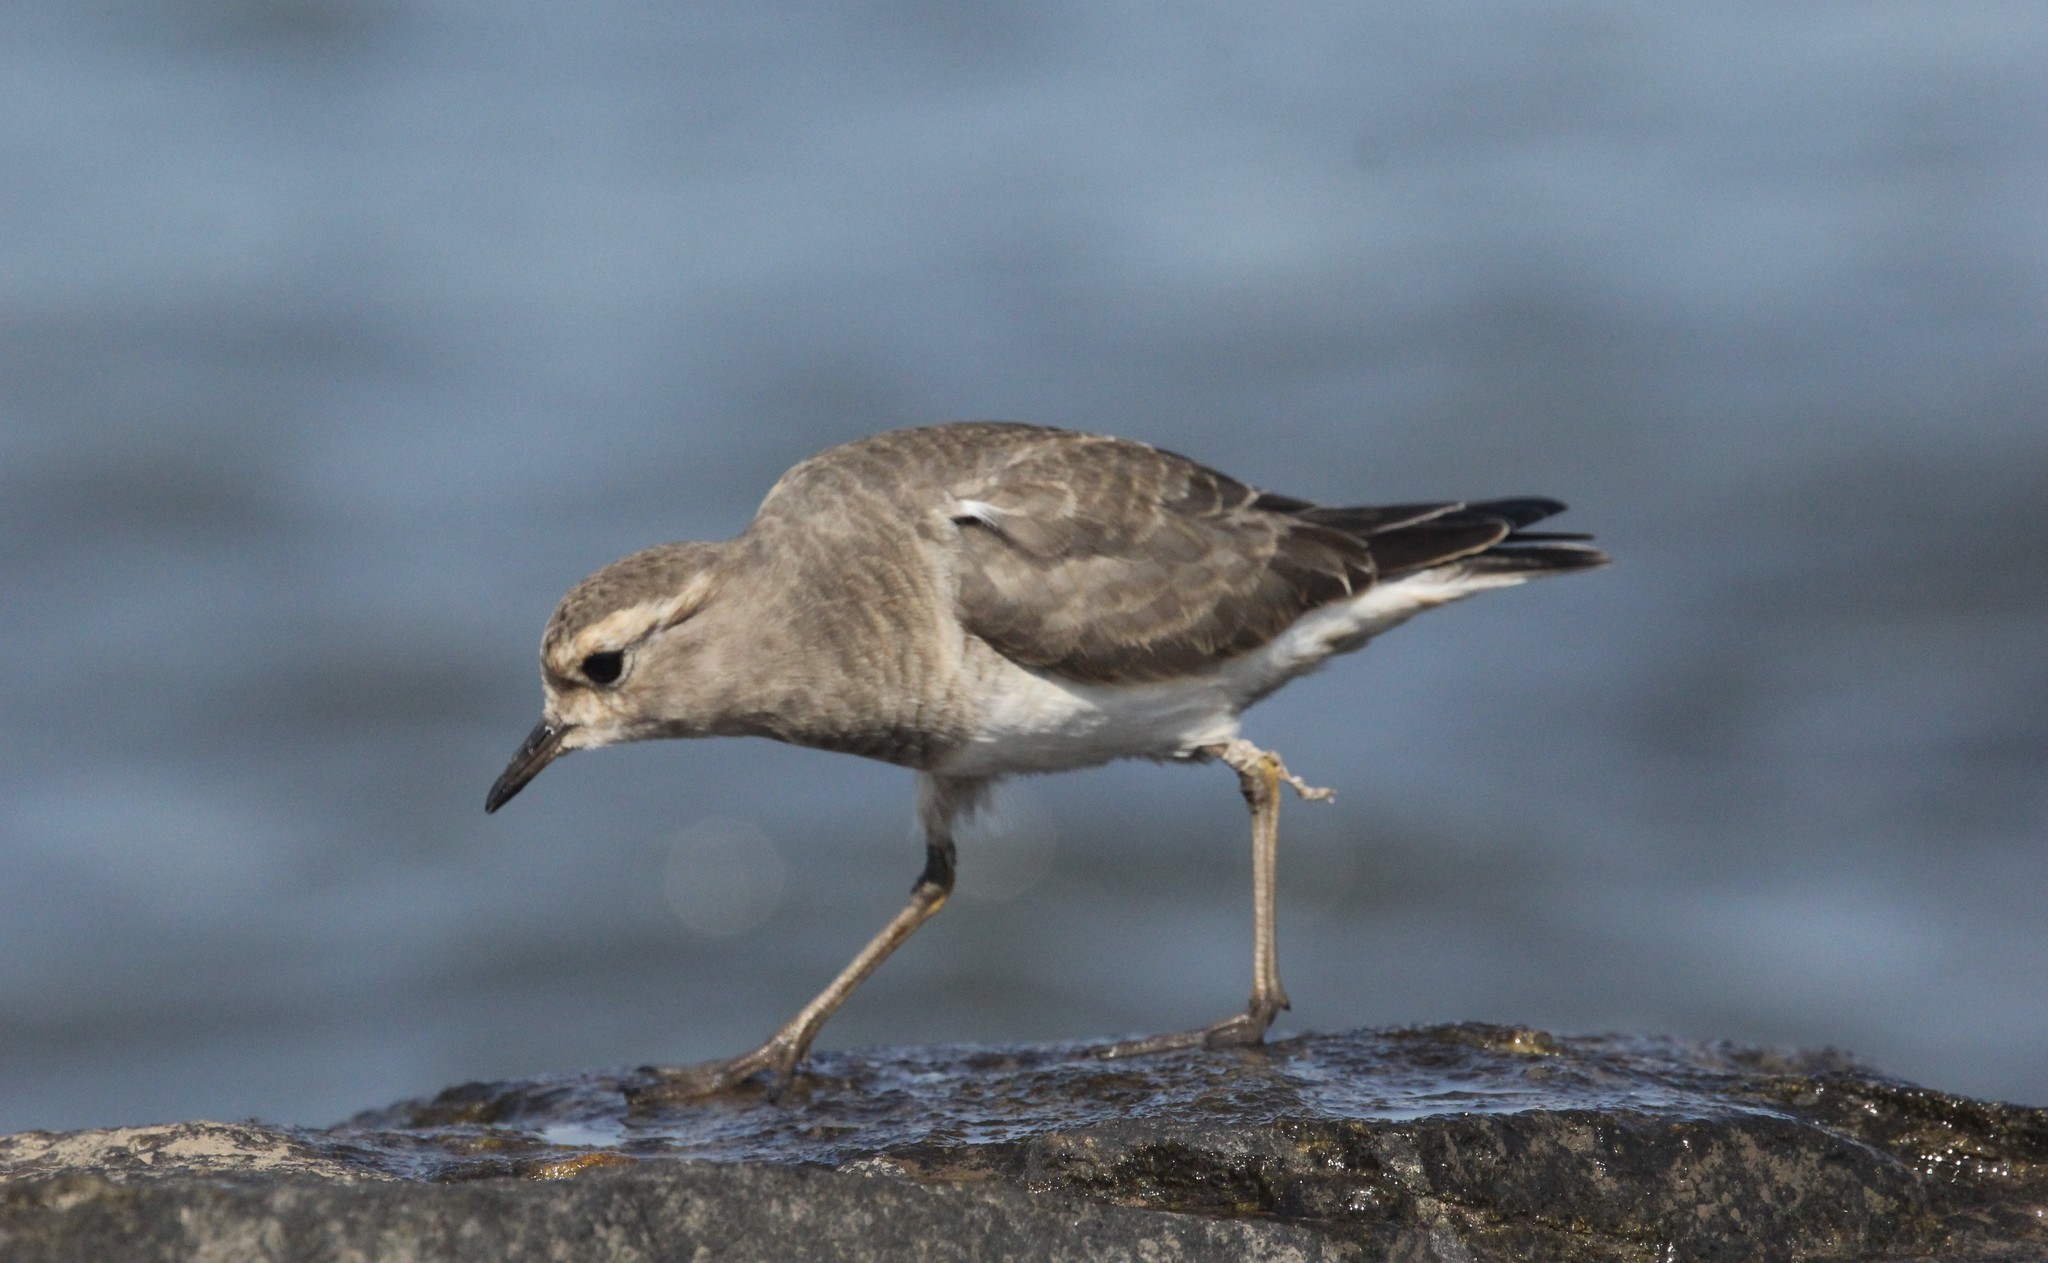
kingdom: Animalia
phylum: Chordata
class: Aves
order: Charadriiformes
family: Charadriidae
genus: Charadrius
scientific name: Charadrius modestus
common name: Rufous-chested plover
